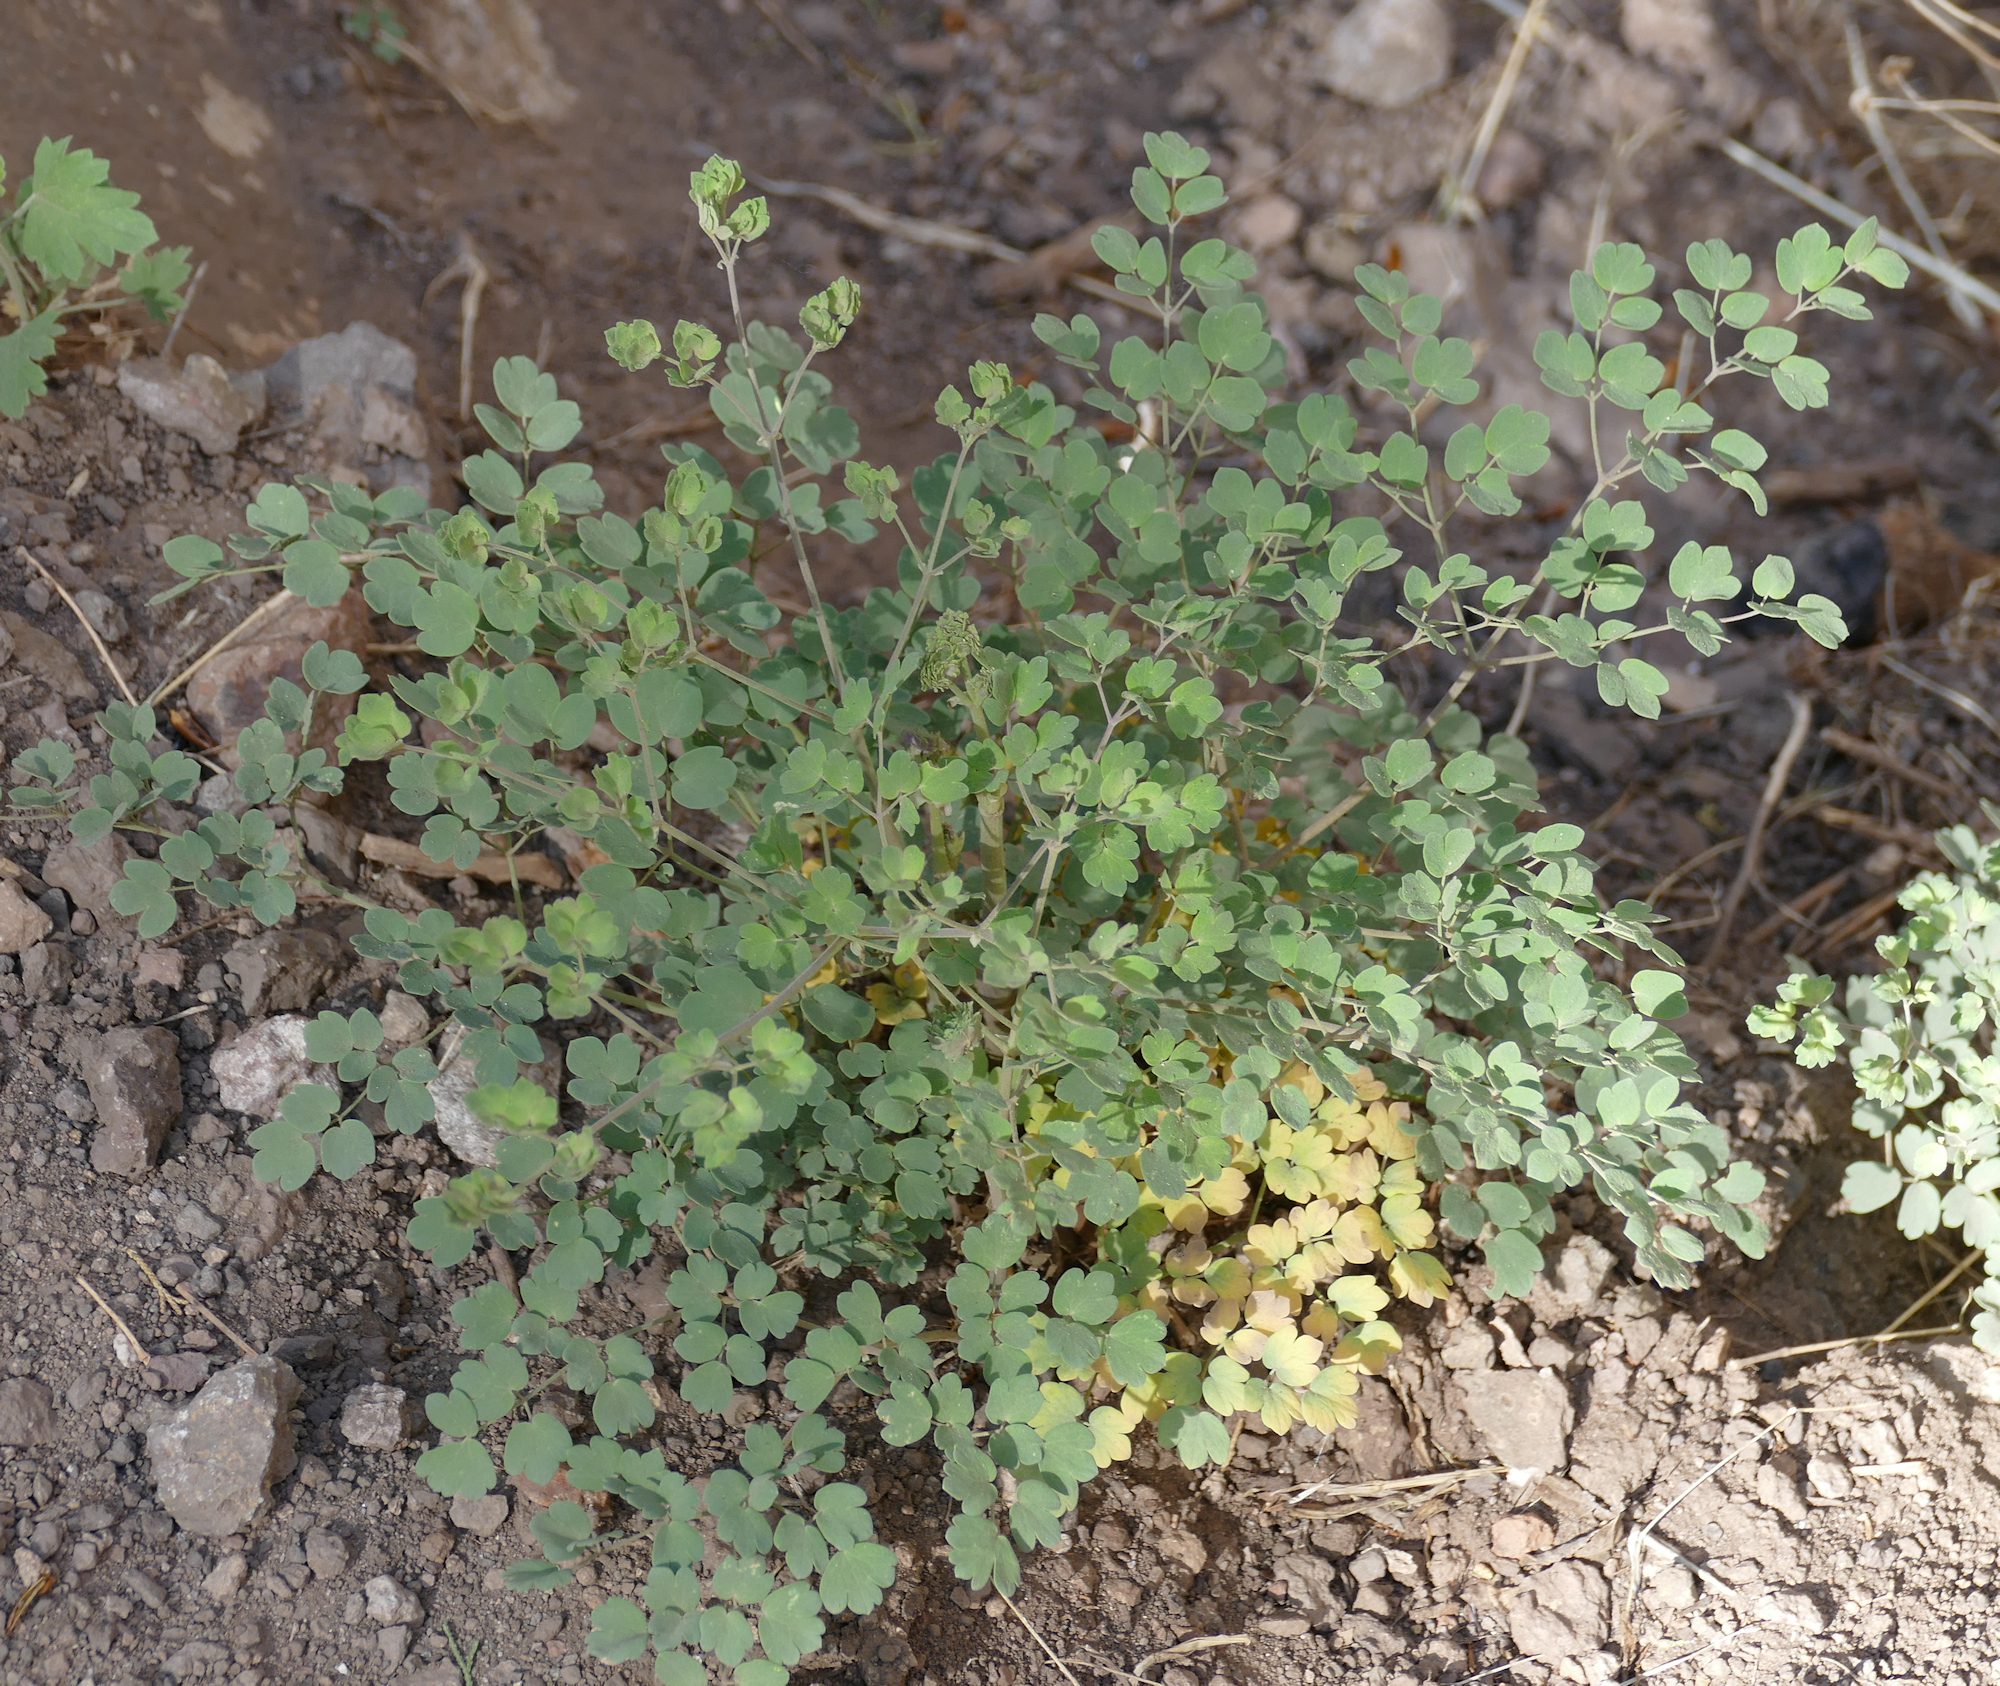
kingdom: Plantae
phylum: Tracheophyta
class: Magnoliopsida
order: Ranunculales
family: Ranunculaceae
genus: Thalictrum
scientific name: Thalictrum fendleri
